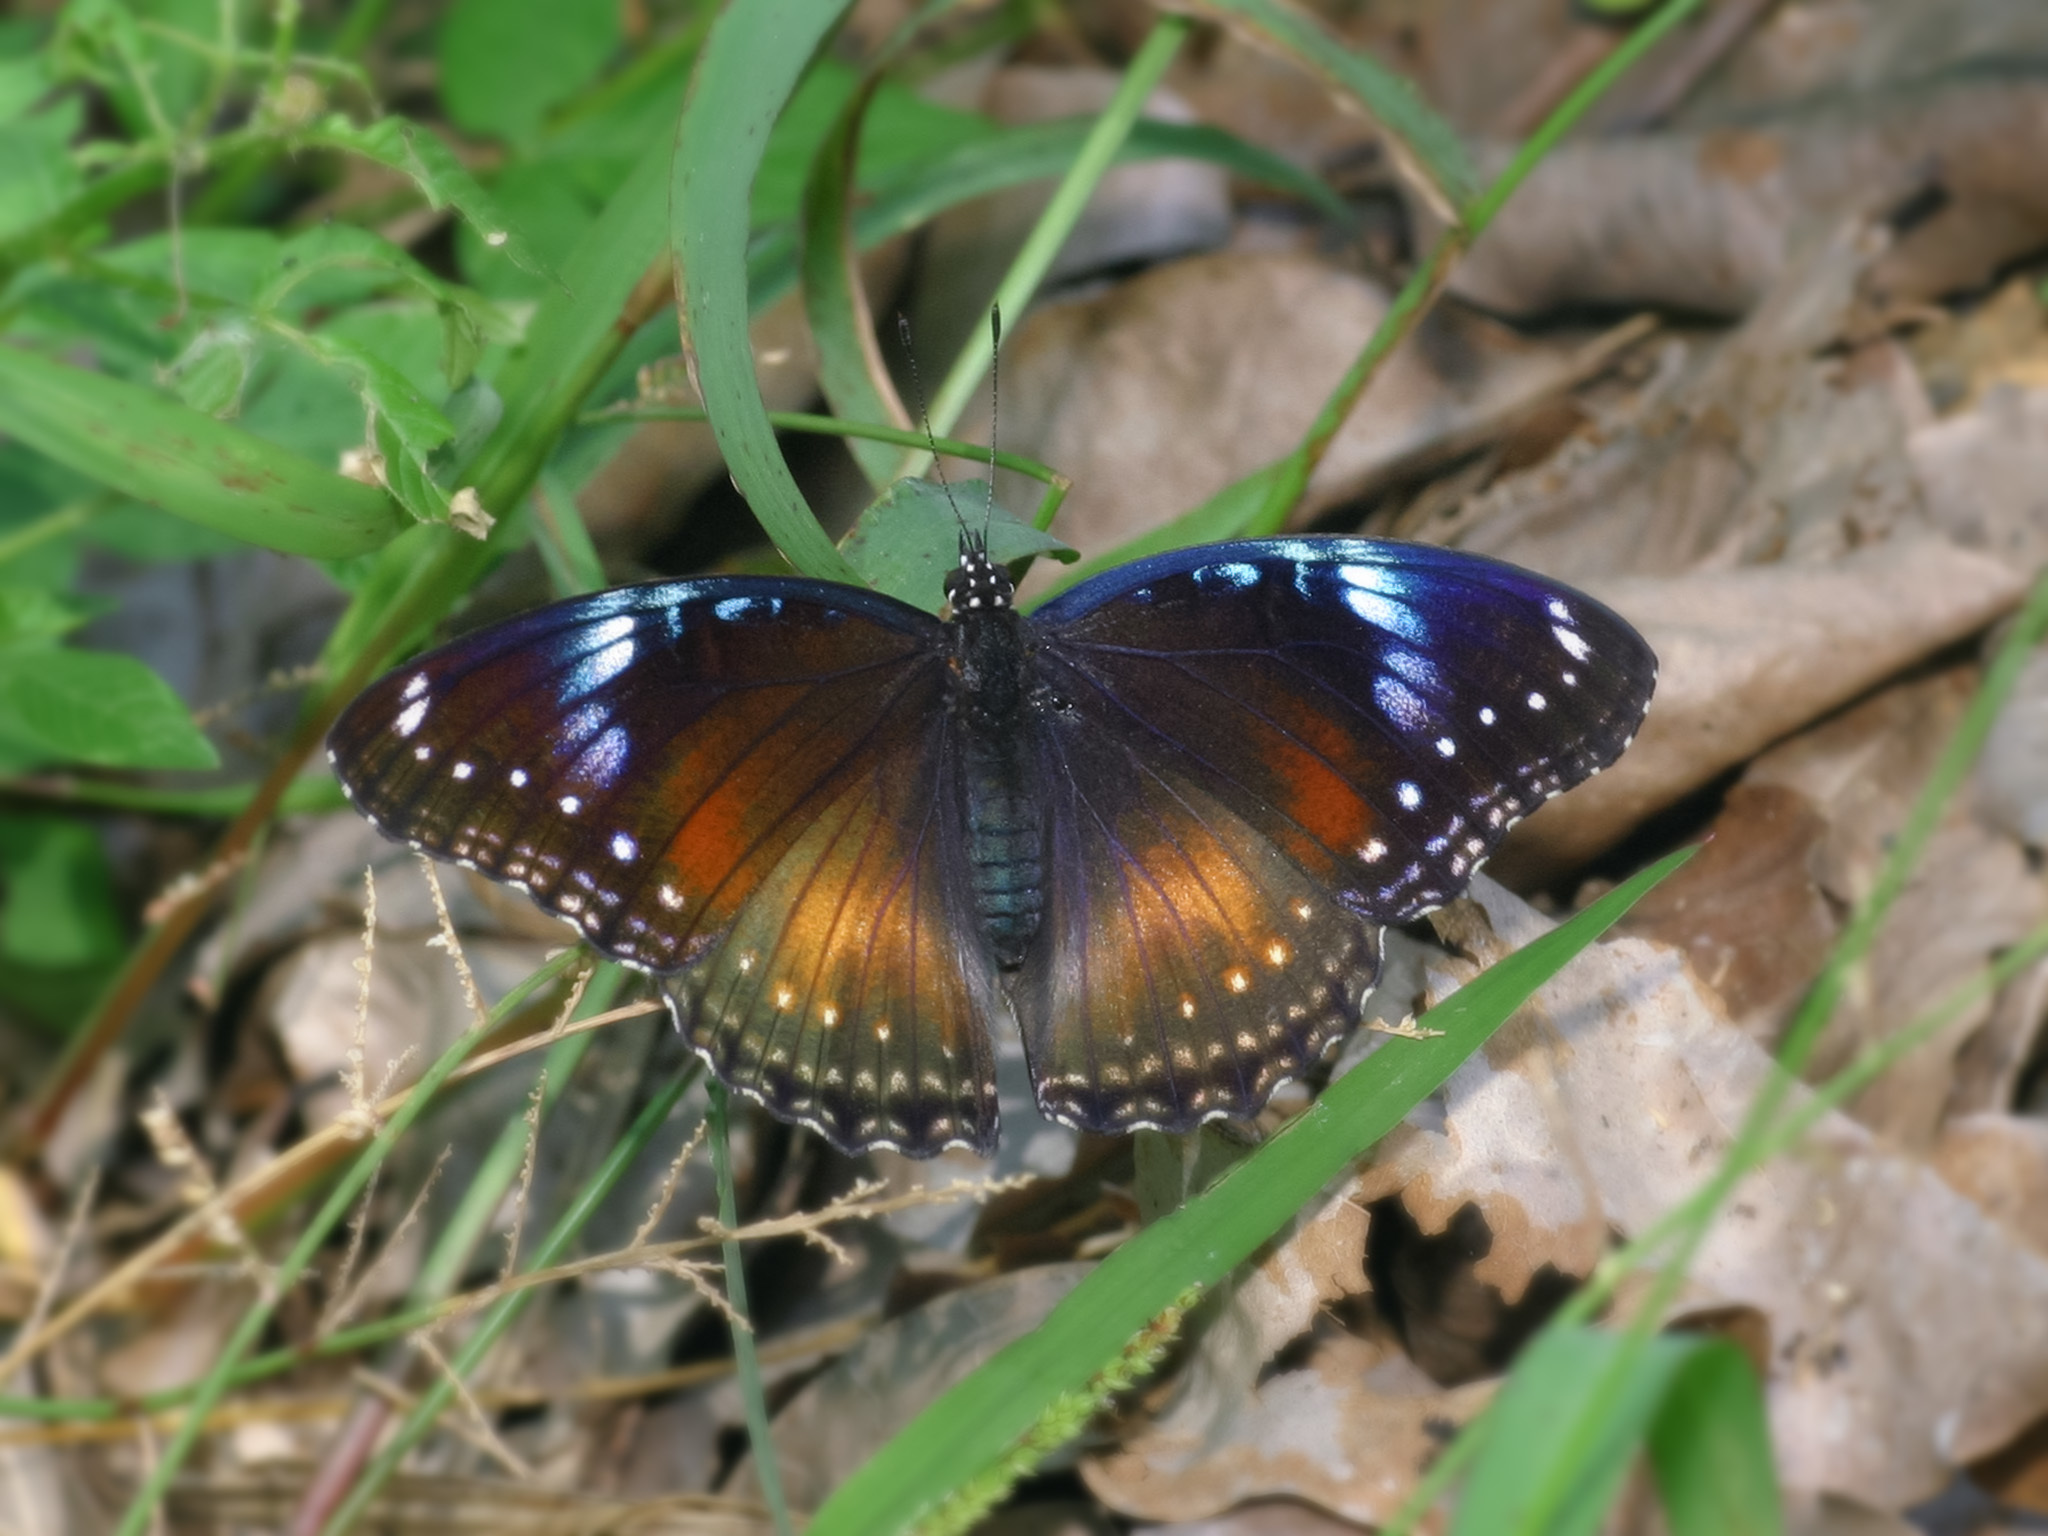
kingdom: Animalia
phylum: Arthropoda
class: Insecta
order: Lepidoptera
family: Nymphalidae
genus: Hypolimnas
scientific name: Hypolimnas bolina
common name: Great eggfly
